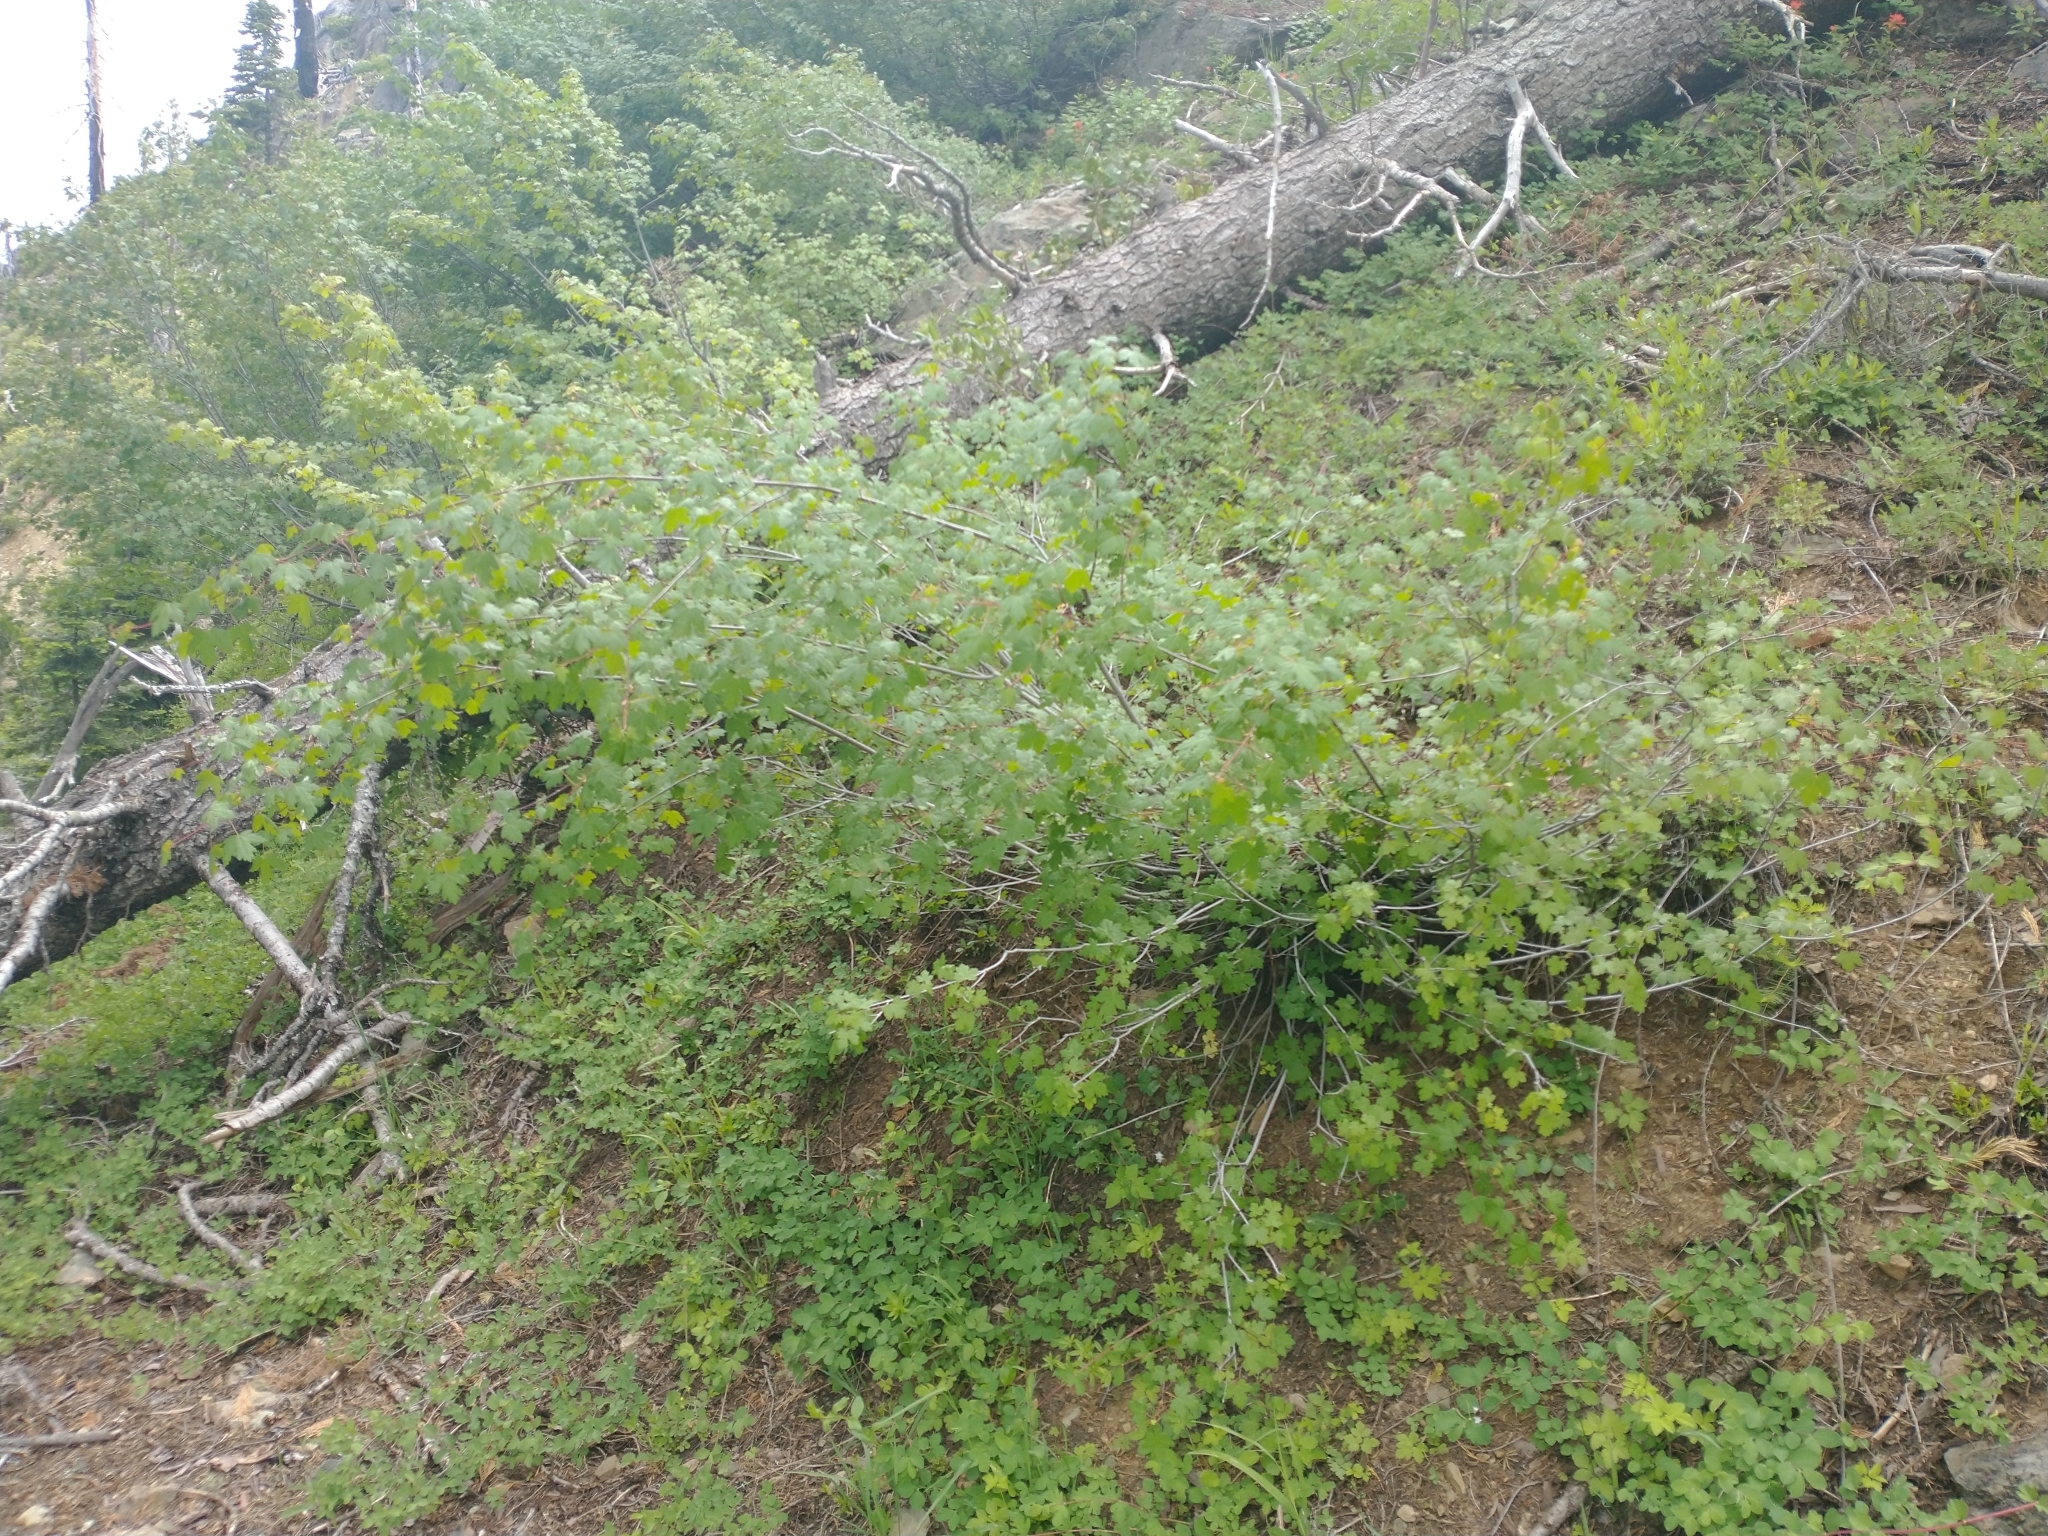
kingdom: Plantae
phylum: Tracheophyta
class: Magnoliopsida
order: Sapindales
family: Sapindaceae
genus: Acer
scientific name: Acer glabrum
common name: Rocky mountain maple
